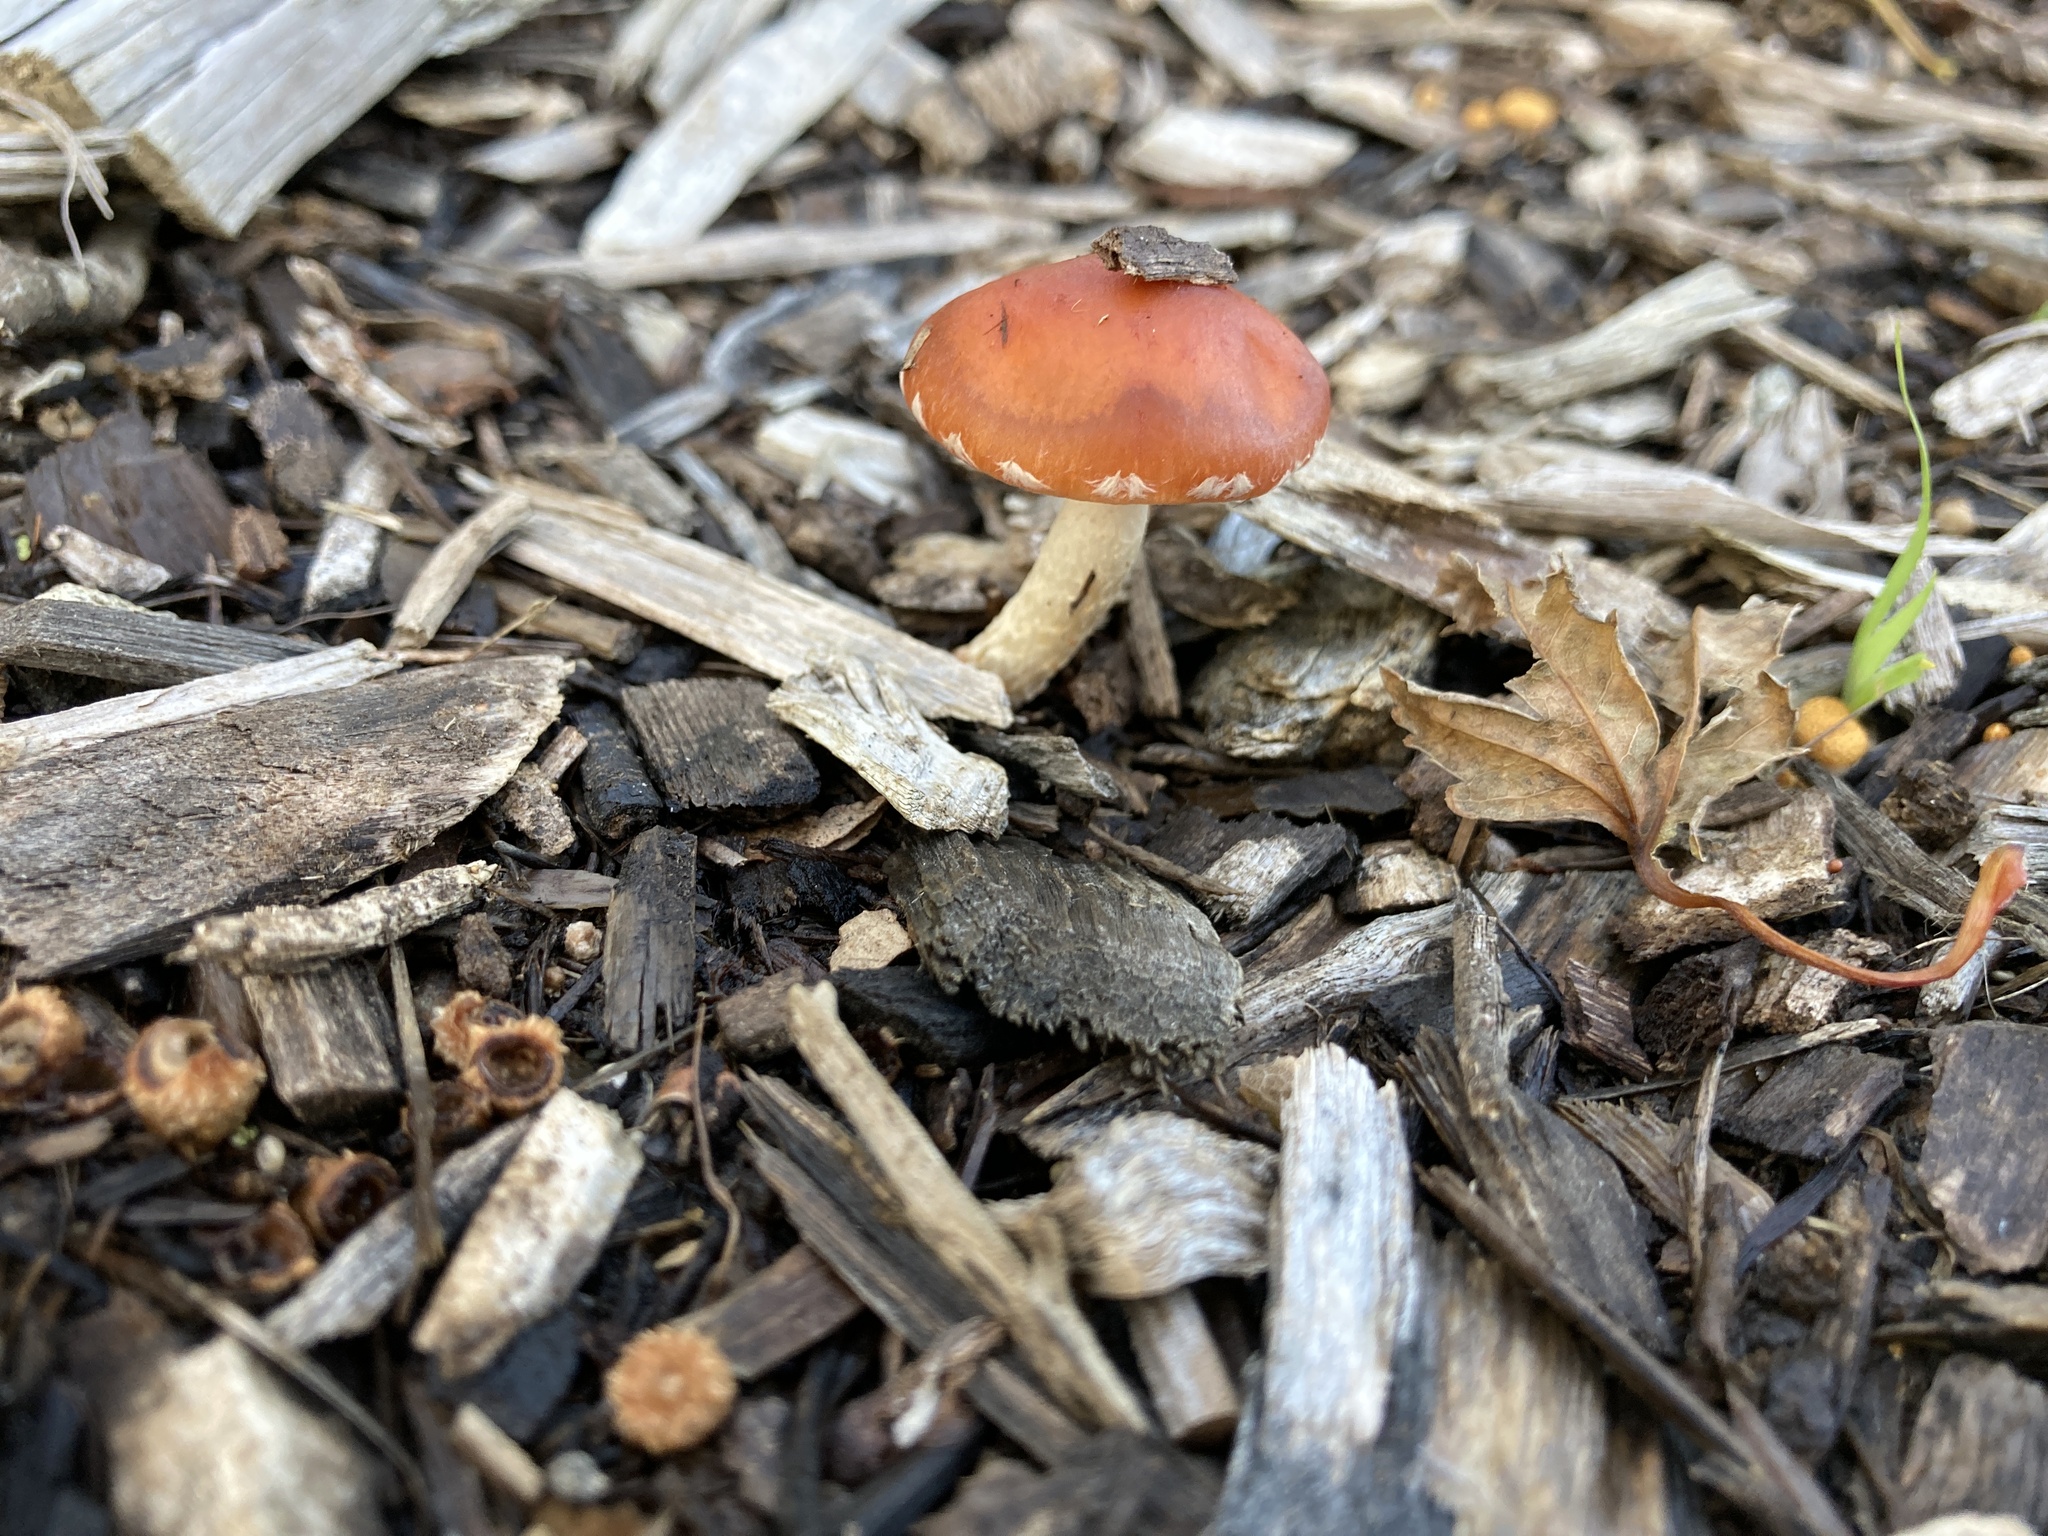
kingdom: Fungi
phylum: Basidiomycota
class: Agaricomycetes
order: Agaricales
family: Strophariaceae
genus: Leratiomyces
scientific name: Leratiomyces ceres
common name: Redlead roundhead
